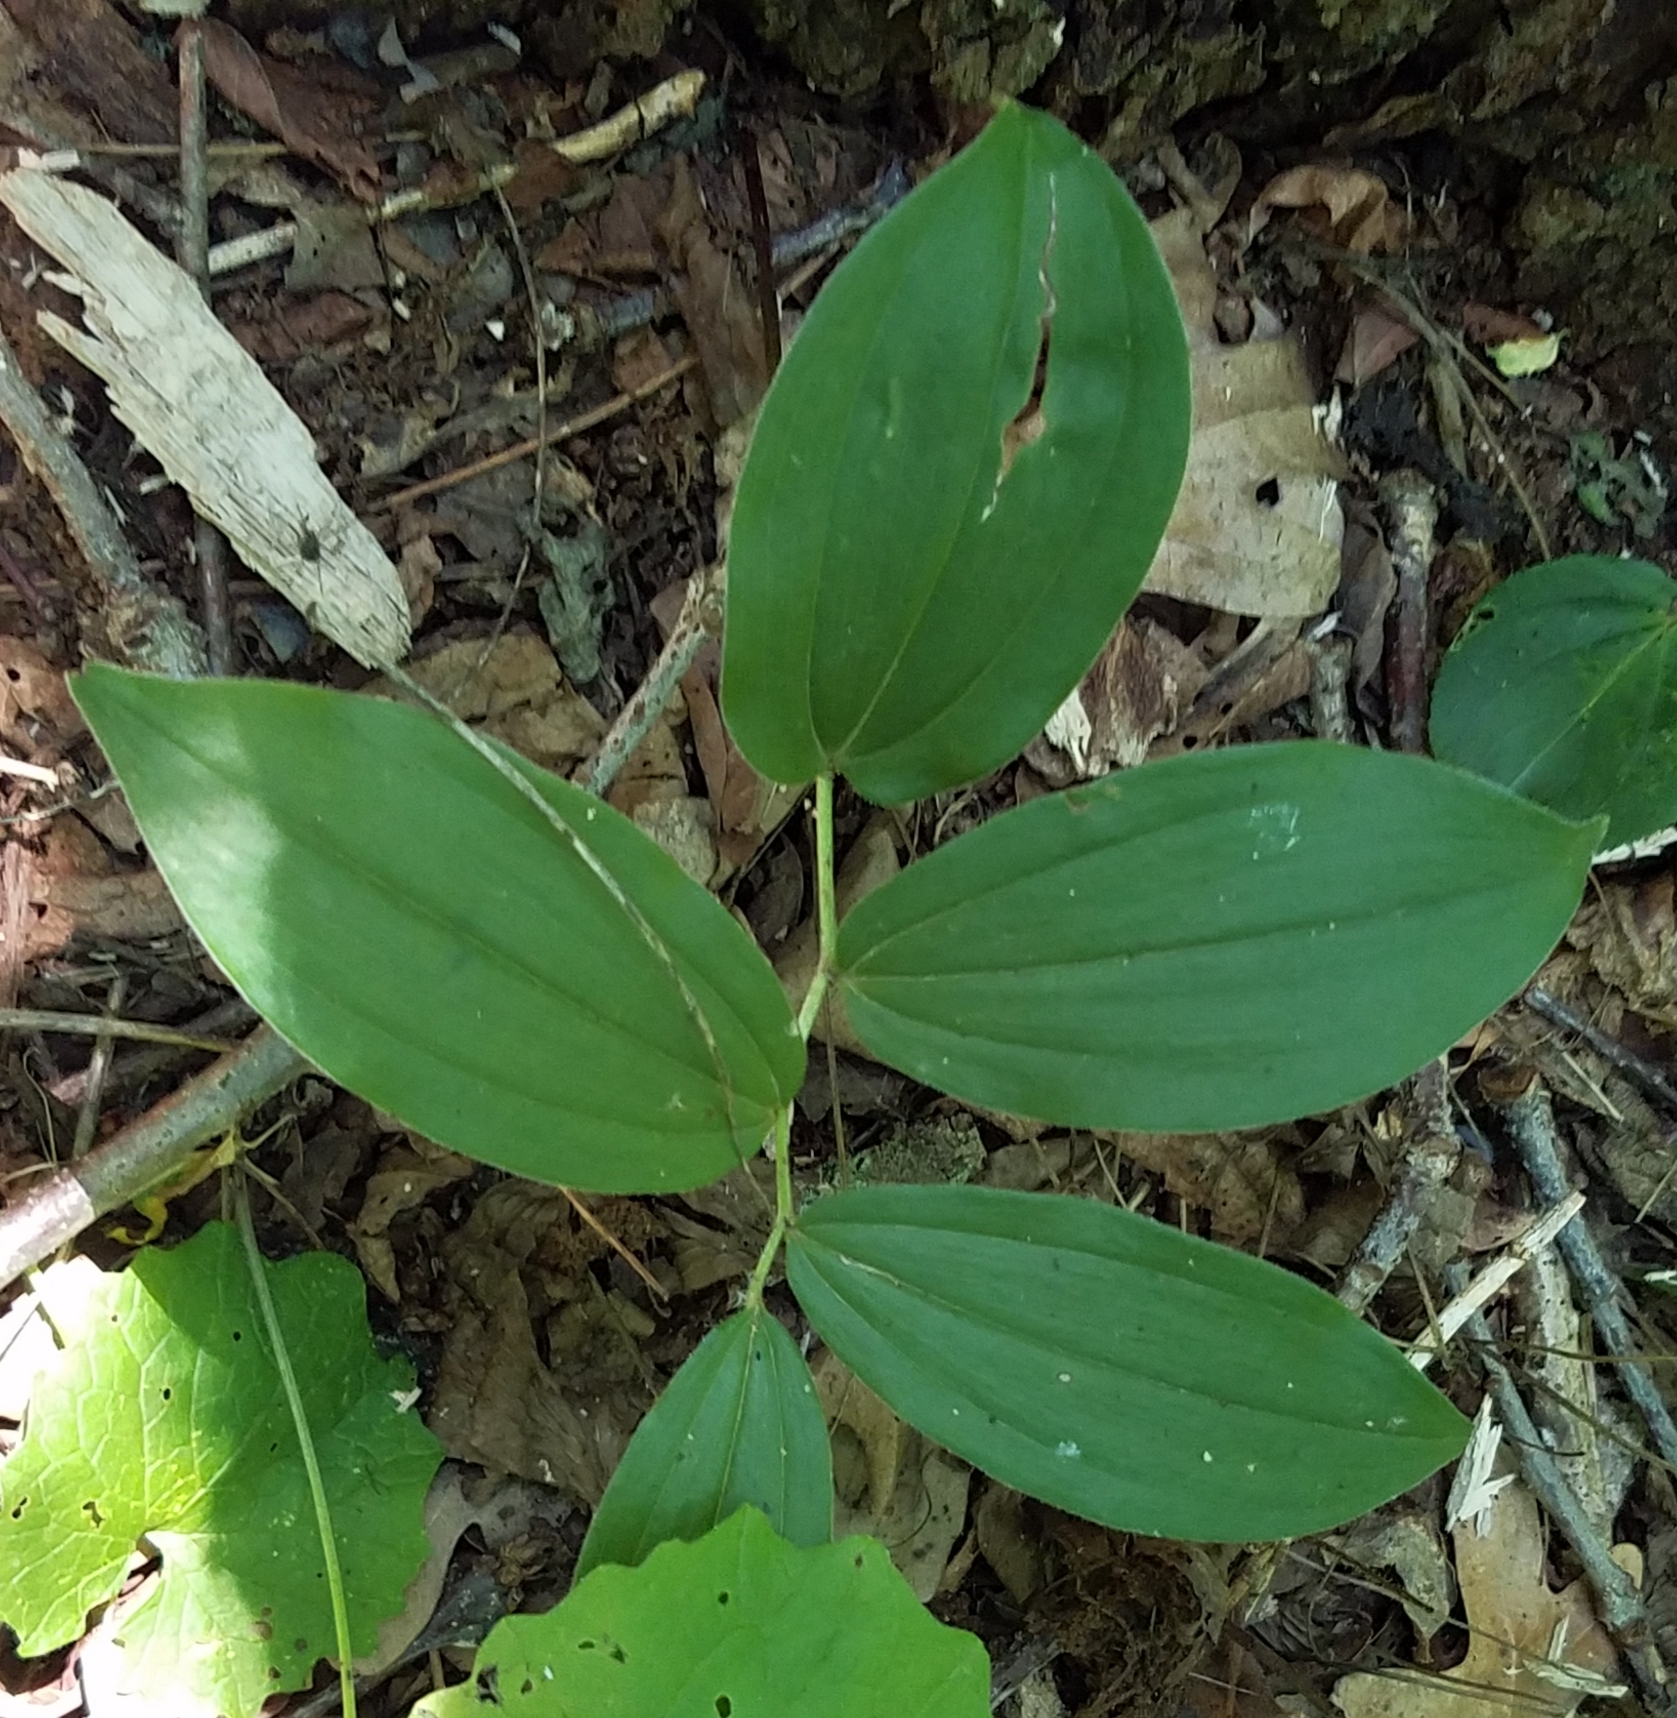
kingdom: Plantae
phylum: Tracheophyta
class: Liliopsida
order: Asparagales
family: Asparagaceae
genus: Maianthemum
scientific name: Maianthemum racemosum
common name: False spikenard
